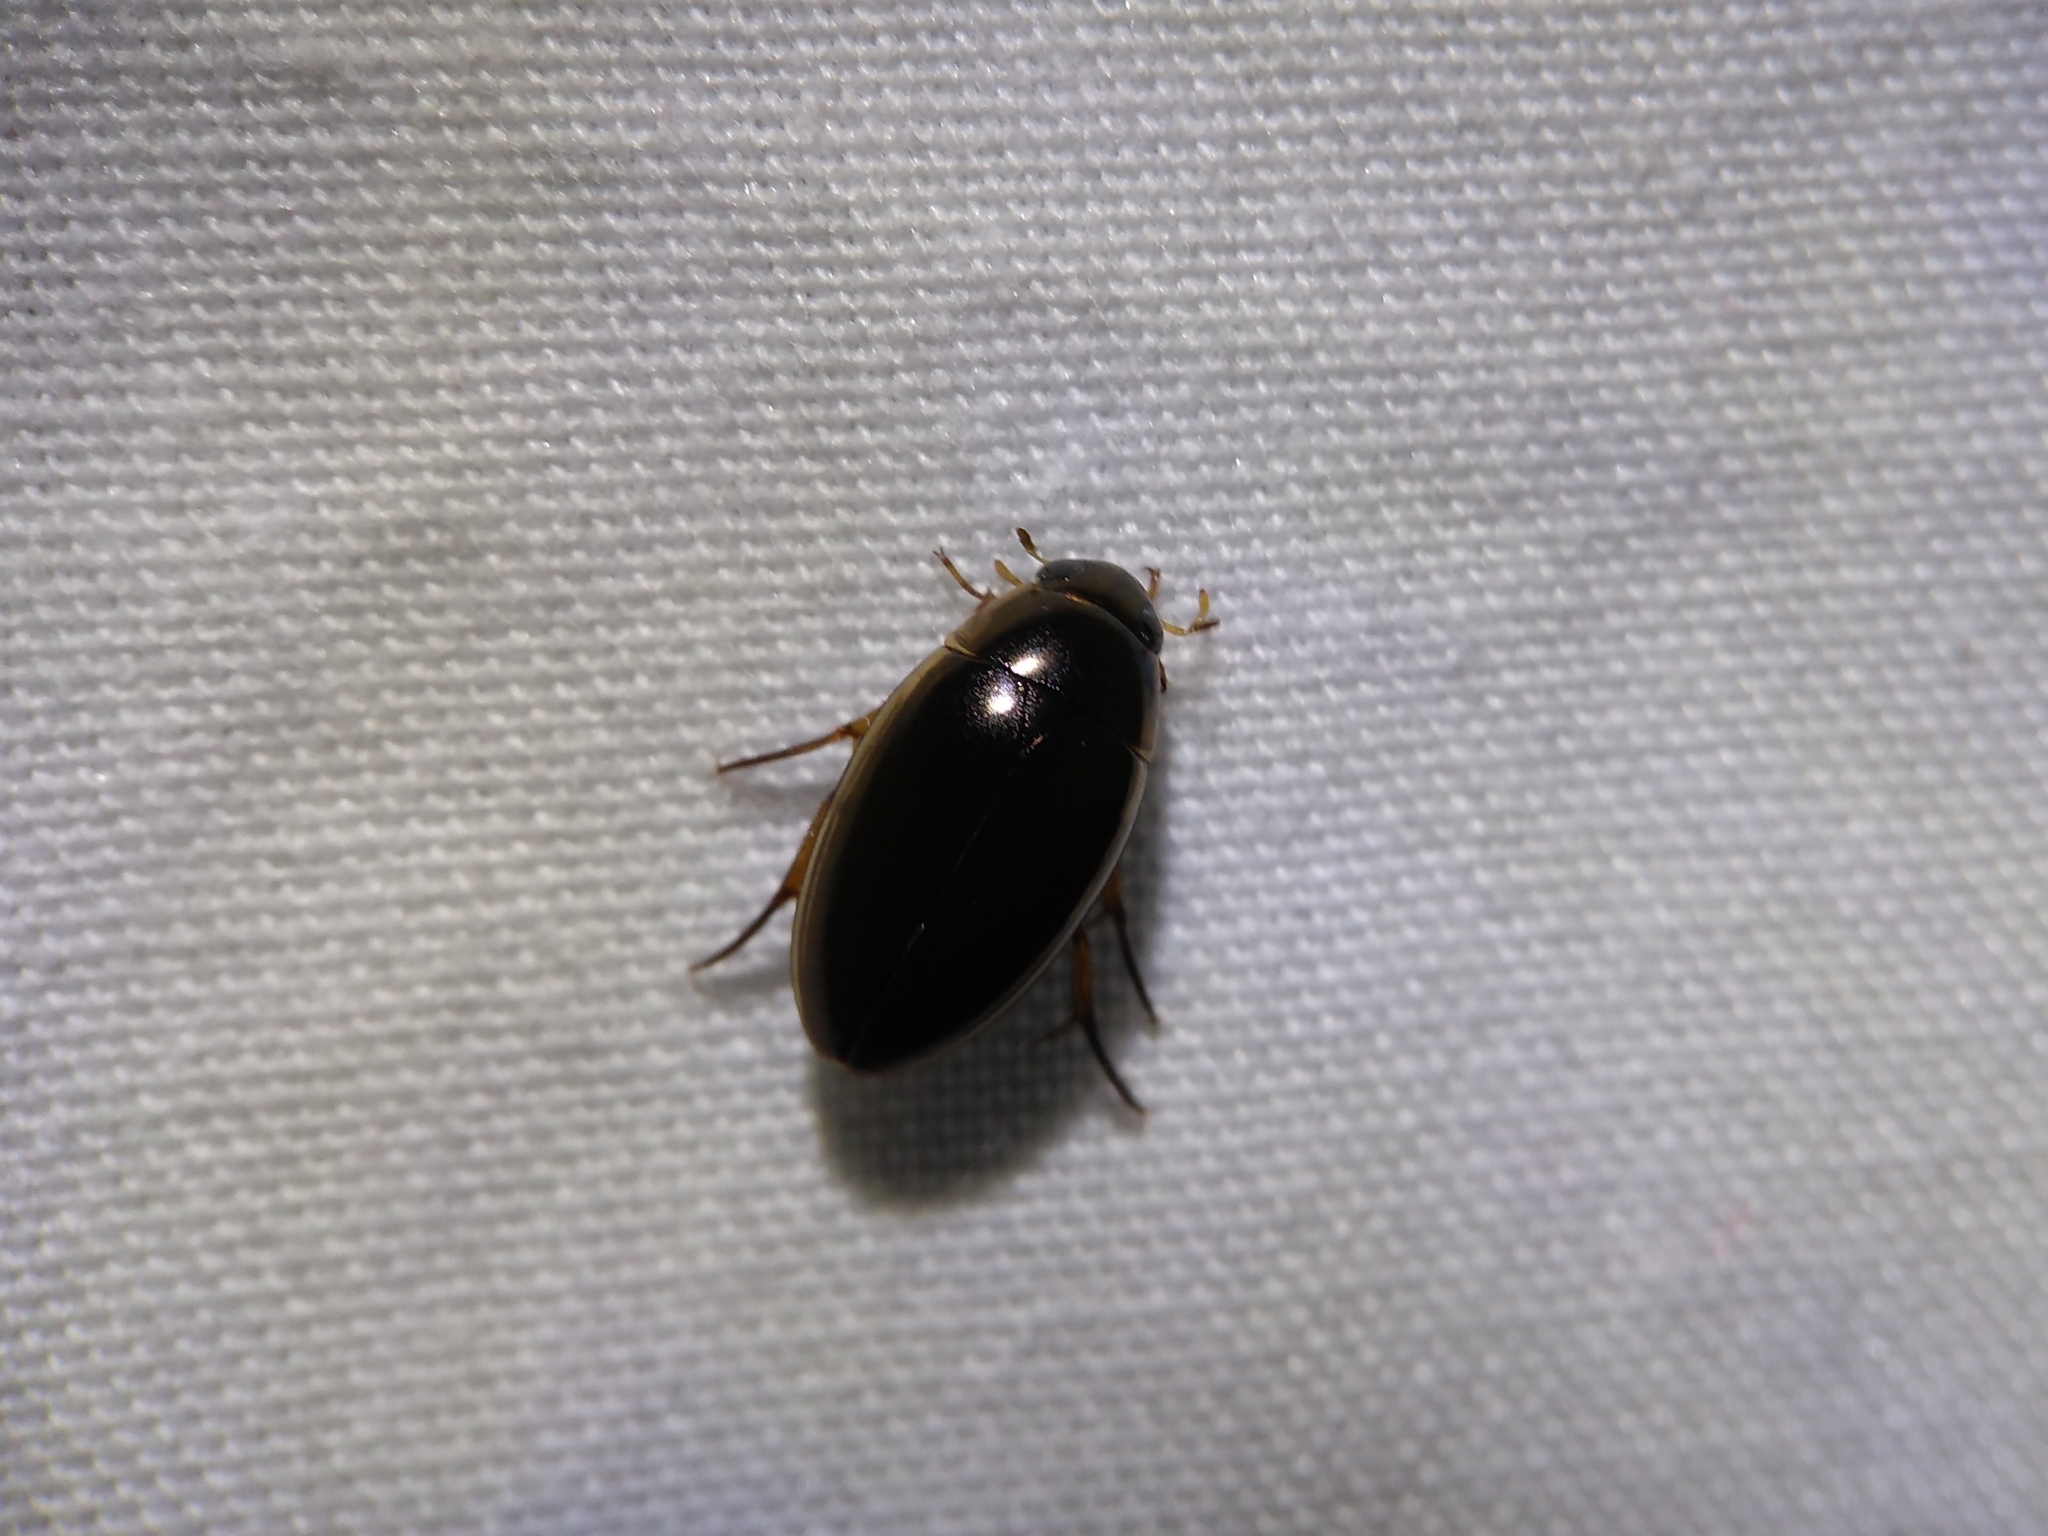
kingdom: Animalia
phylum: Arthropoda
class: Insecta
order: Coleoptera
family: Hydrophilidae
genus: Tropisternus
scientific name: Tropisternus lateralis
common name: Lateral-banded water scavenger beetle
